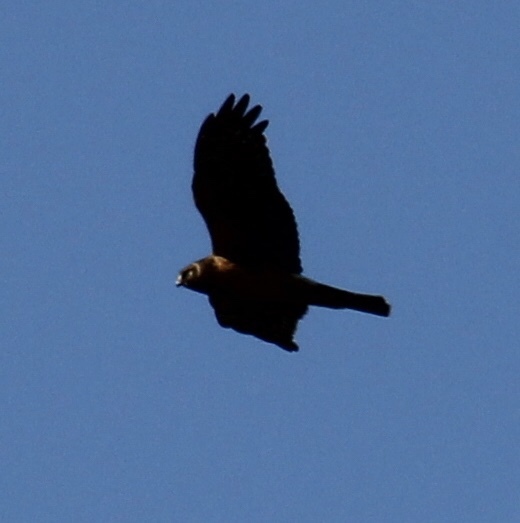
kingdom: Animalia
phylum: Chordata
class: Aves
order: Accipitriformes
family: Accipitridae
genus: Circus
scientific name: Circus cyaneus
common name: Hen harrier
